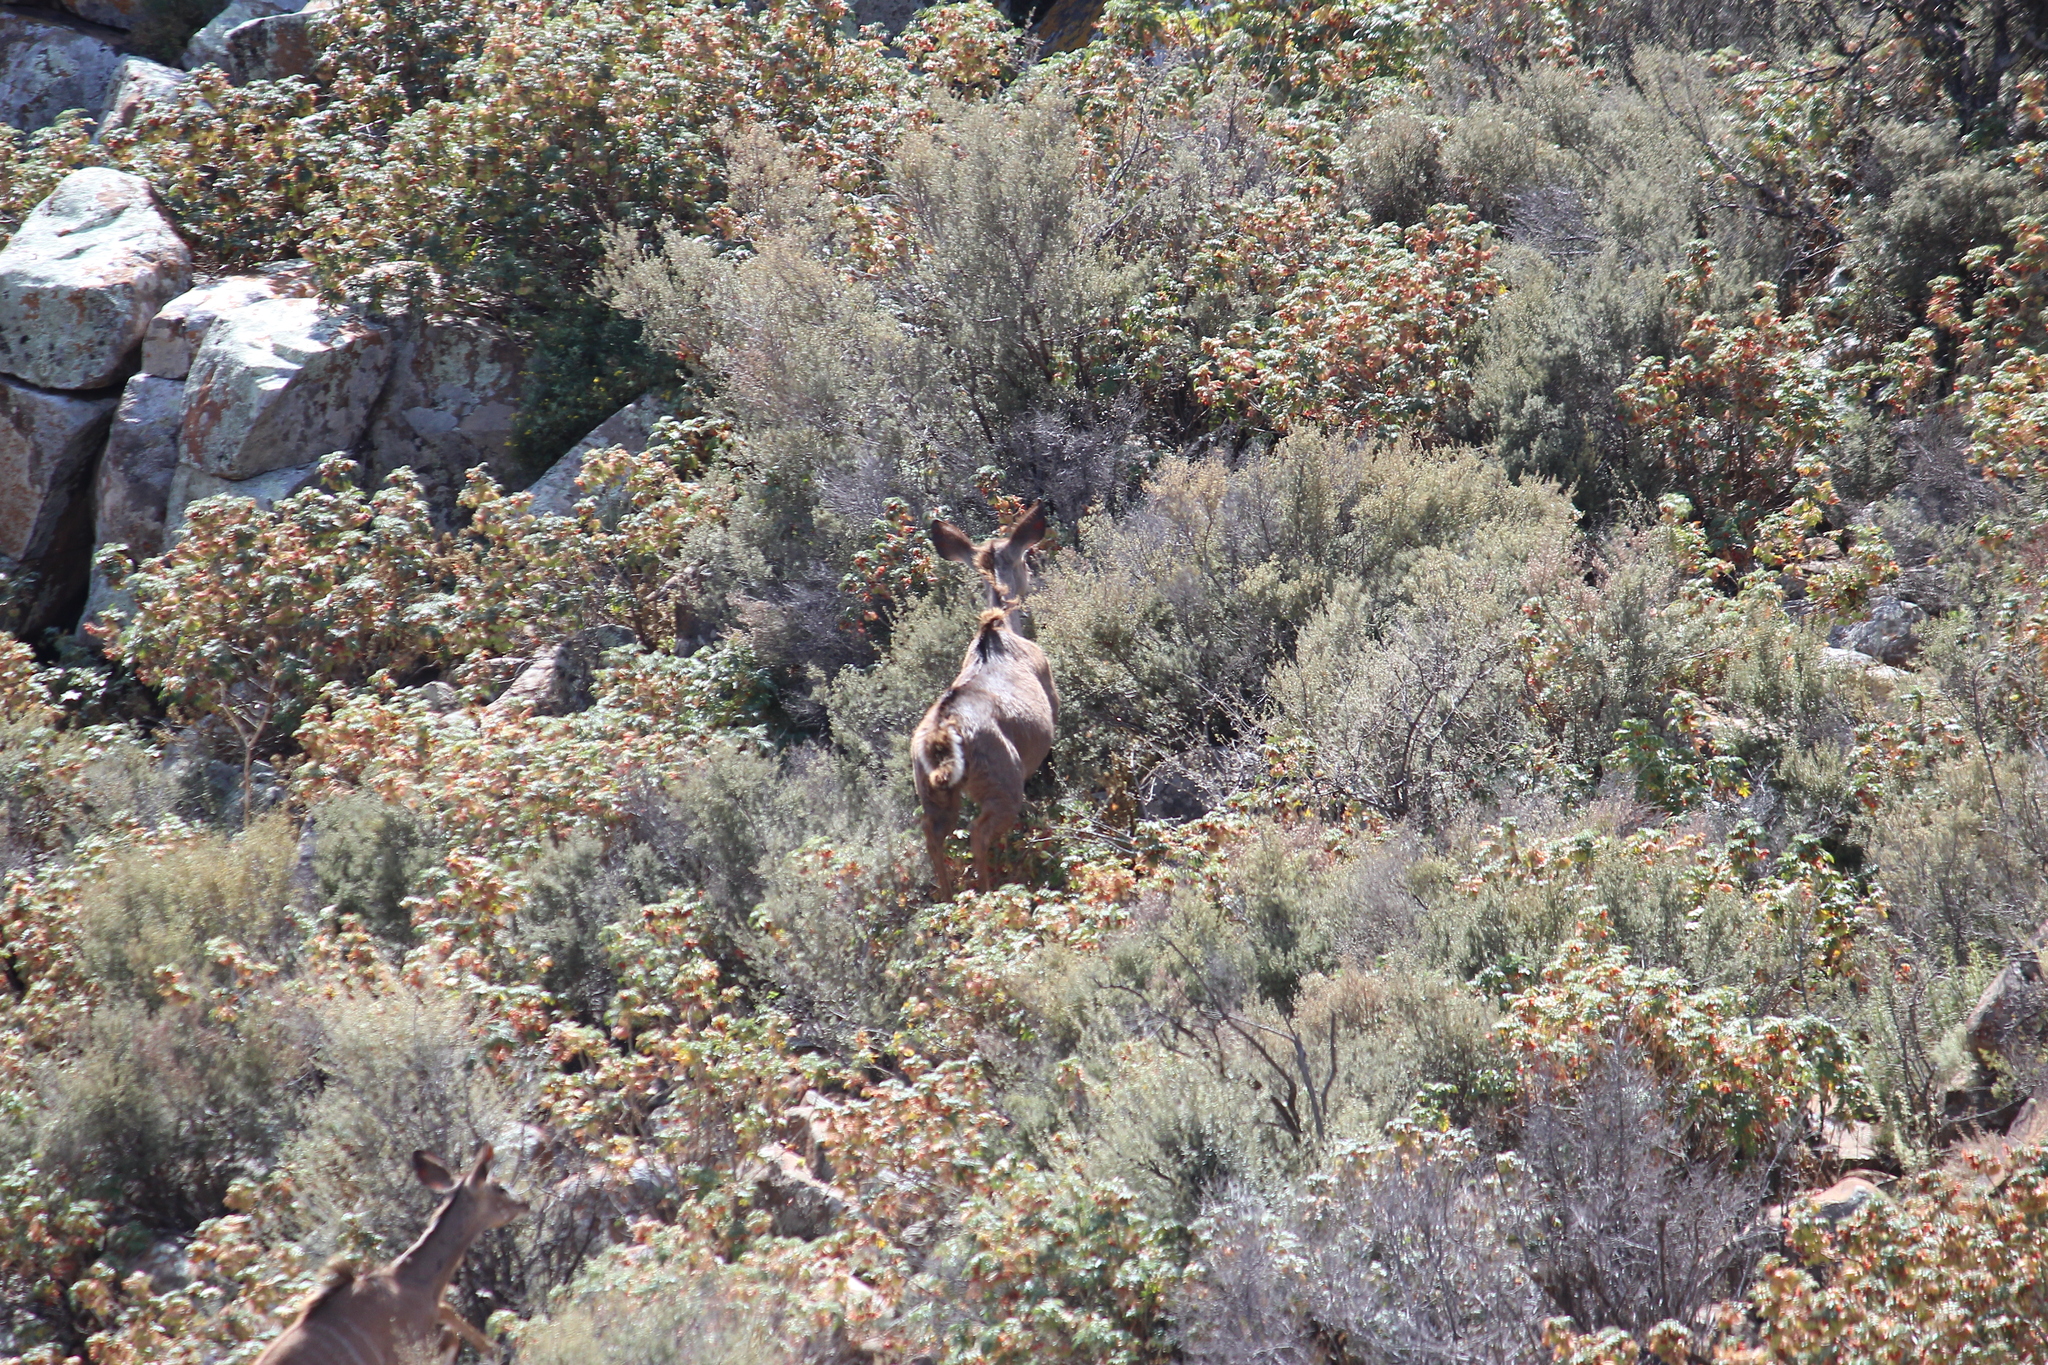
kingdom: Animalia
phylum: Chordata
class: Mammalia
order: Artiodactyla
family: Bovidae
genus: Tragelaphus
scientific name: Tragelaphus strepsiceros
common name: Greater kudu
